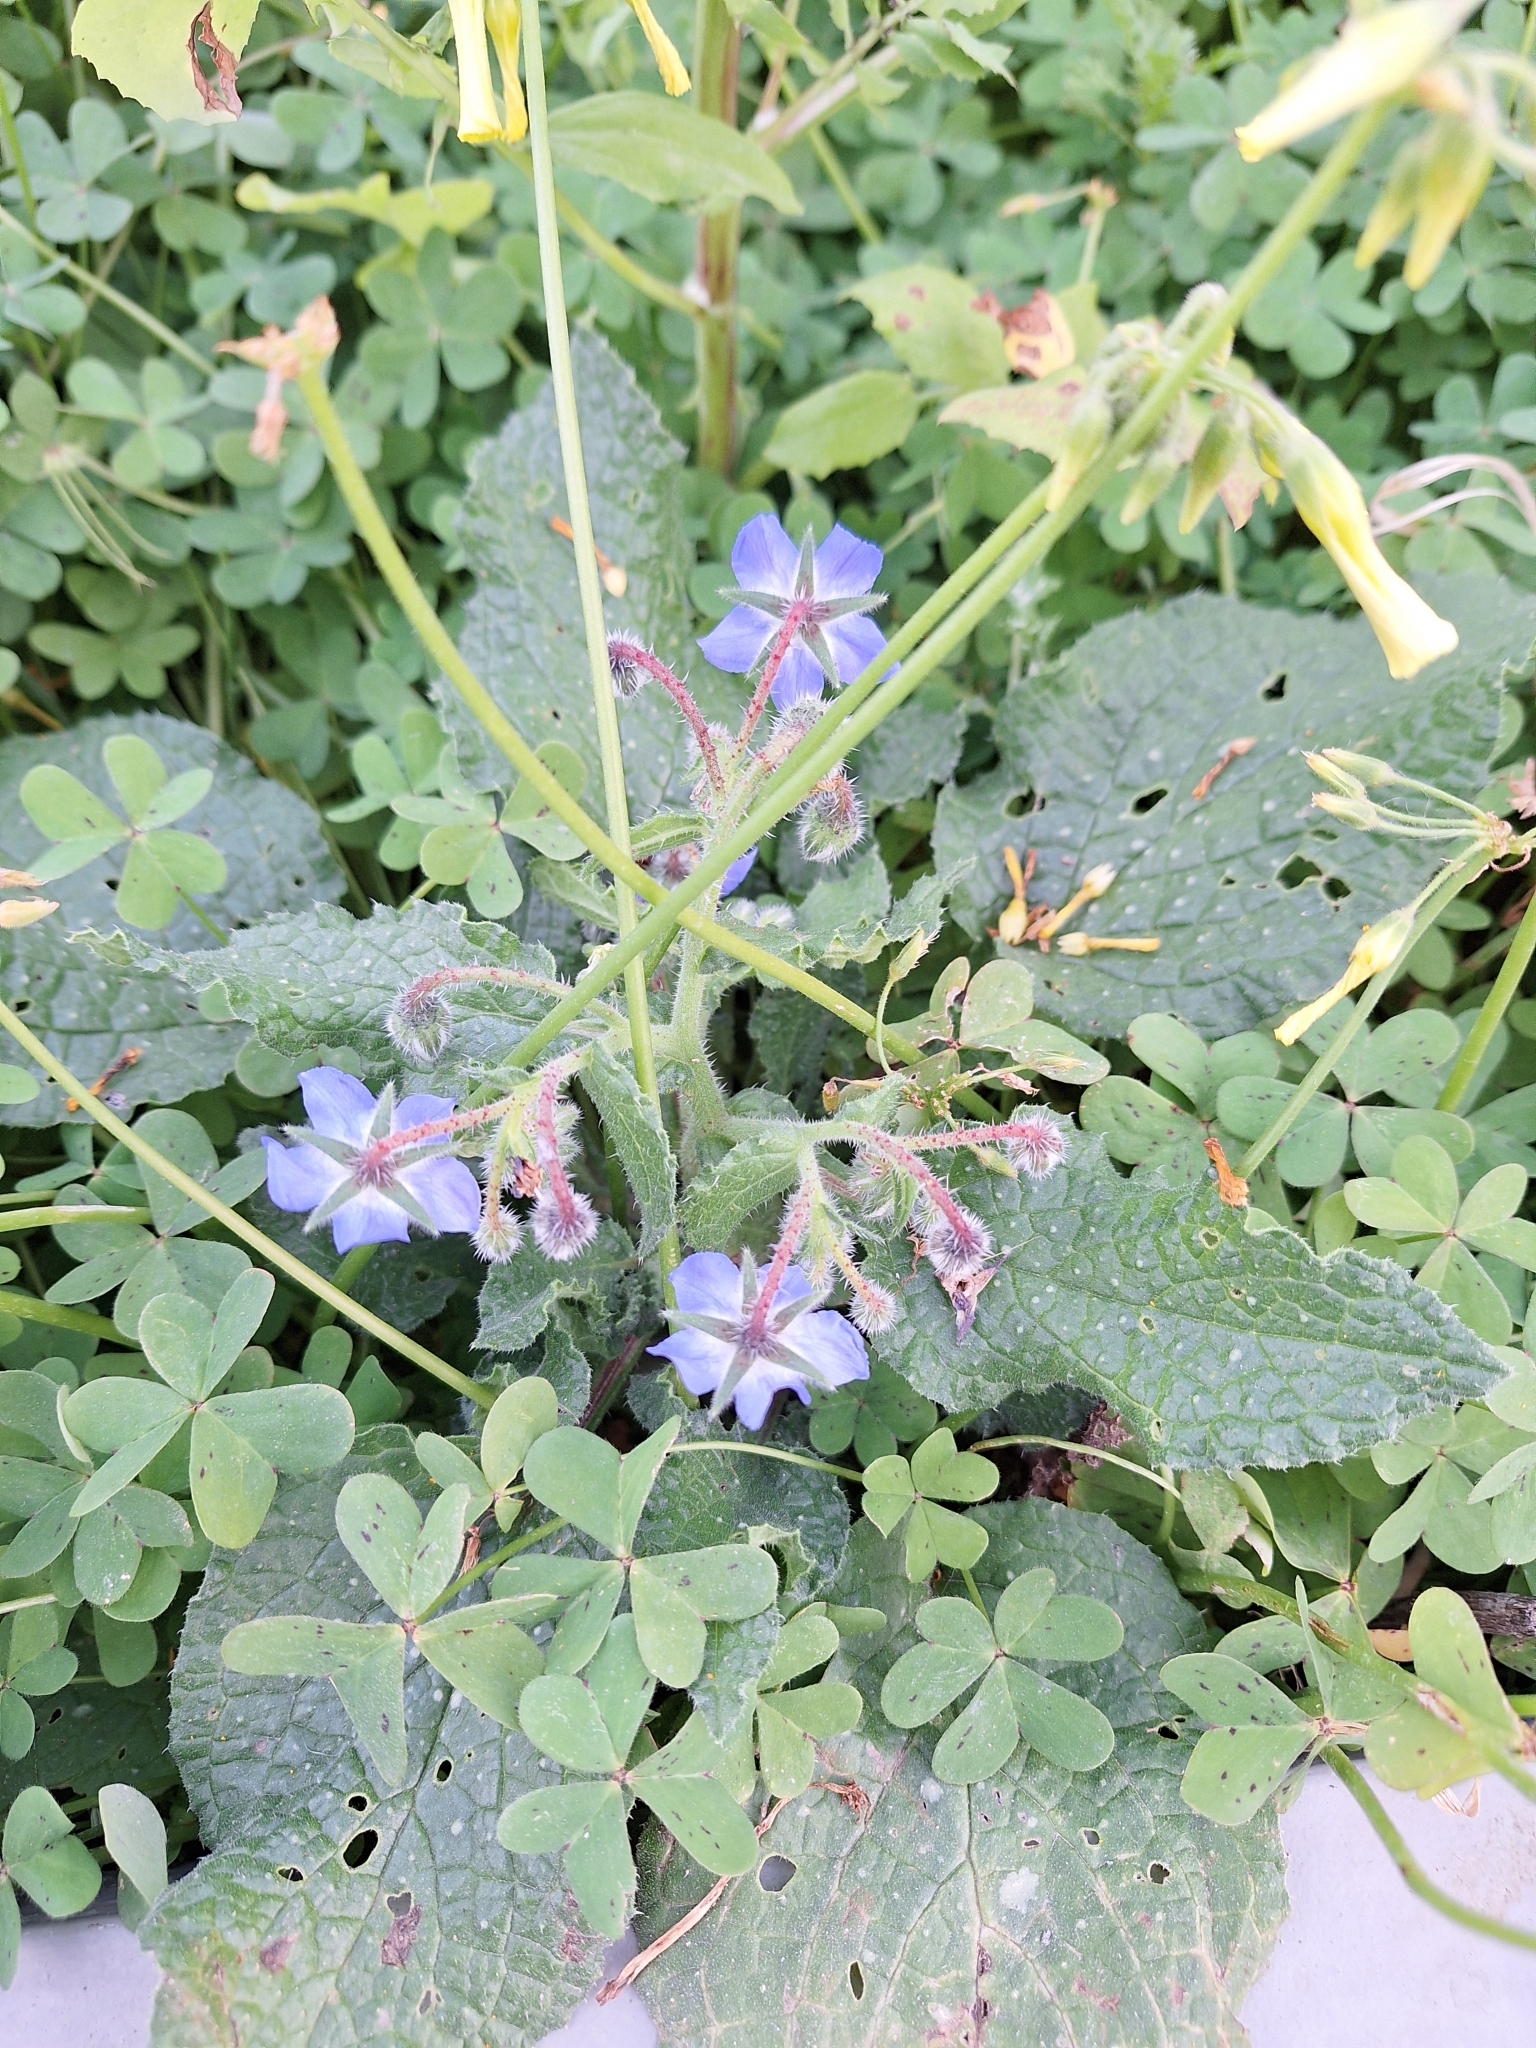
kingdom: Plantae
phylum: Tracheophyta
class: Magnoliopsida
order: Boraginales
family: Boraginaceae
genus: Borago
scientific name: Borago officinalis
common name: Borage
